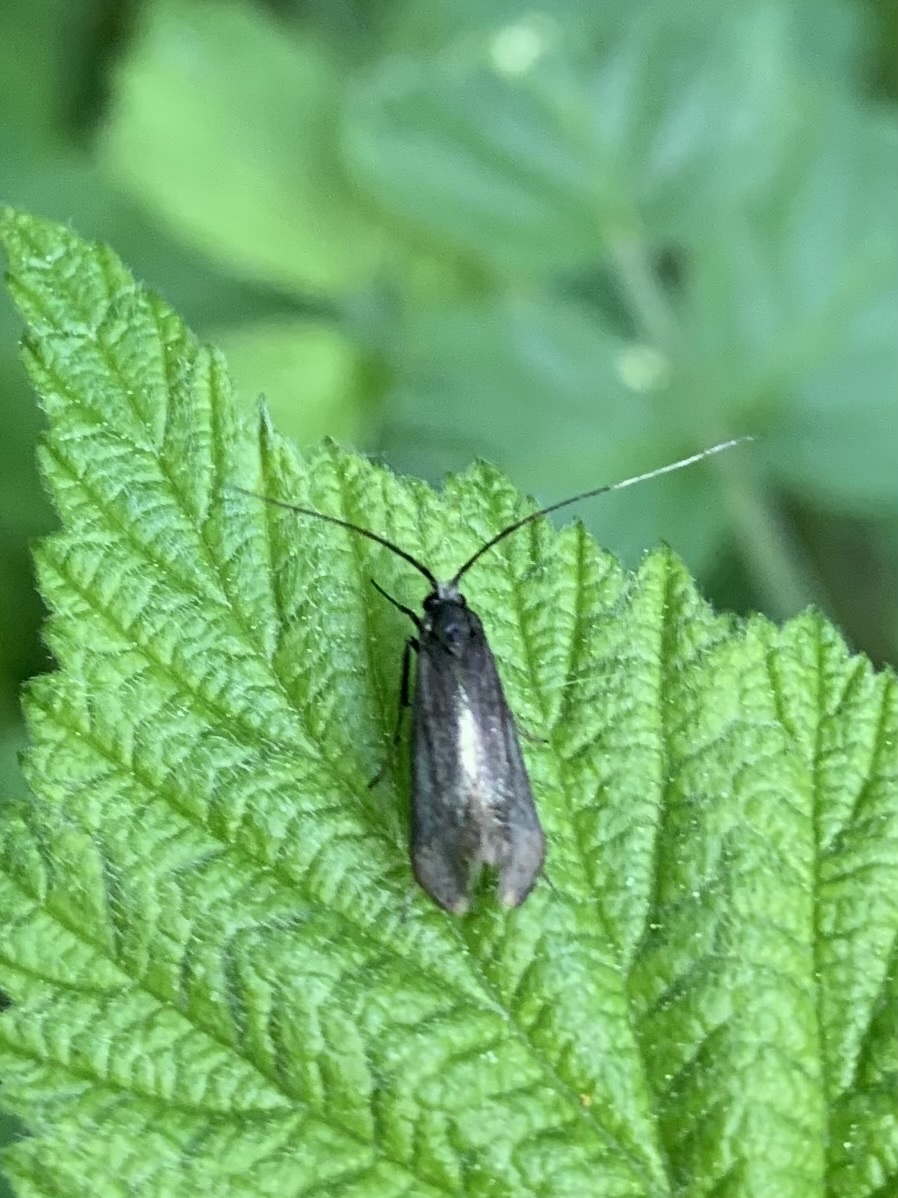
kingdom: Animalia
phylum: Arthropoda
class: Insecta
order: Lepidoptera
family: Adelidae
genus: Adela
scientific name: Adela viridella
